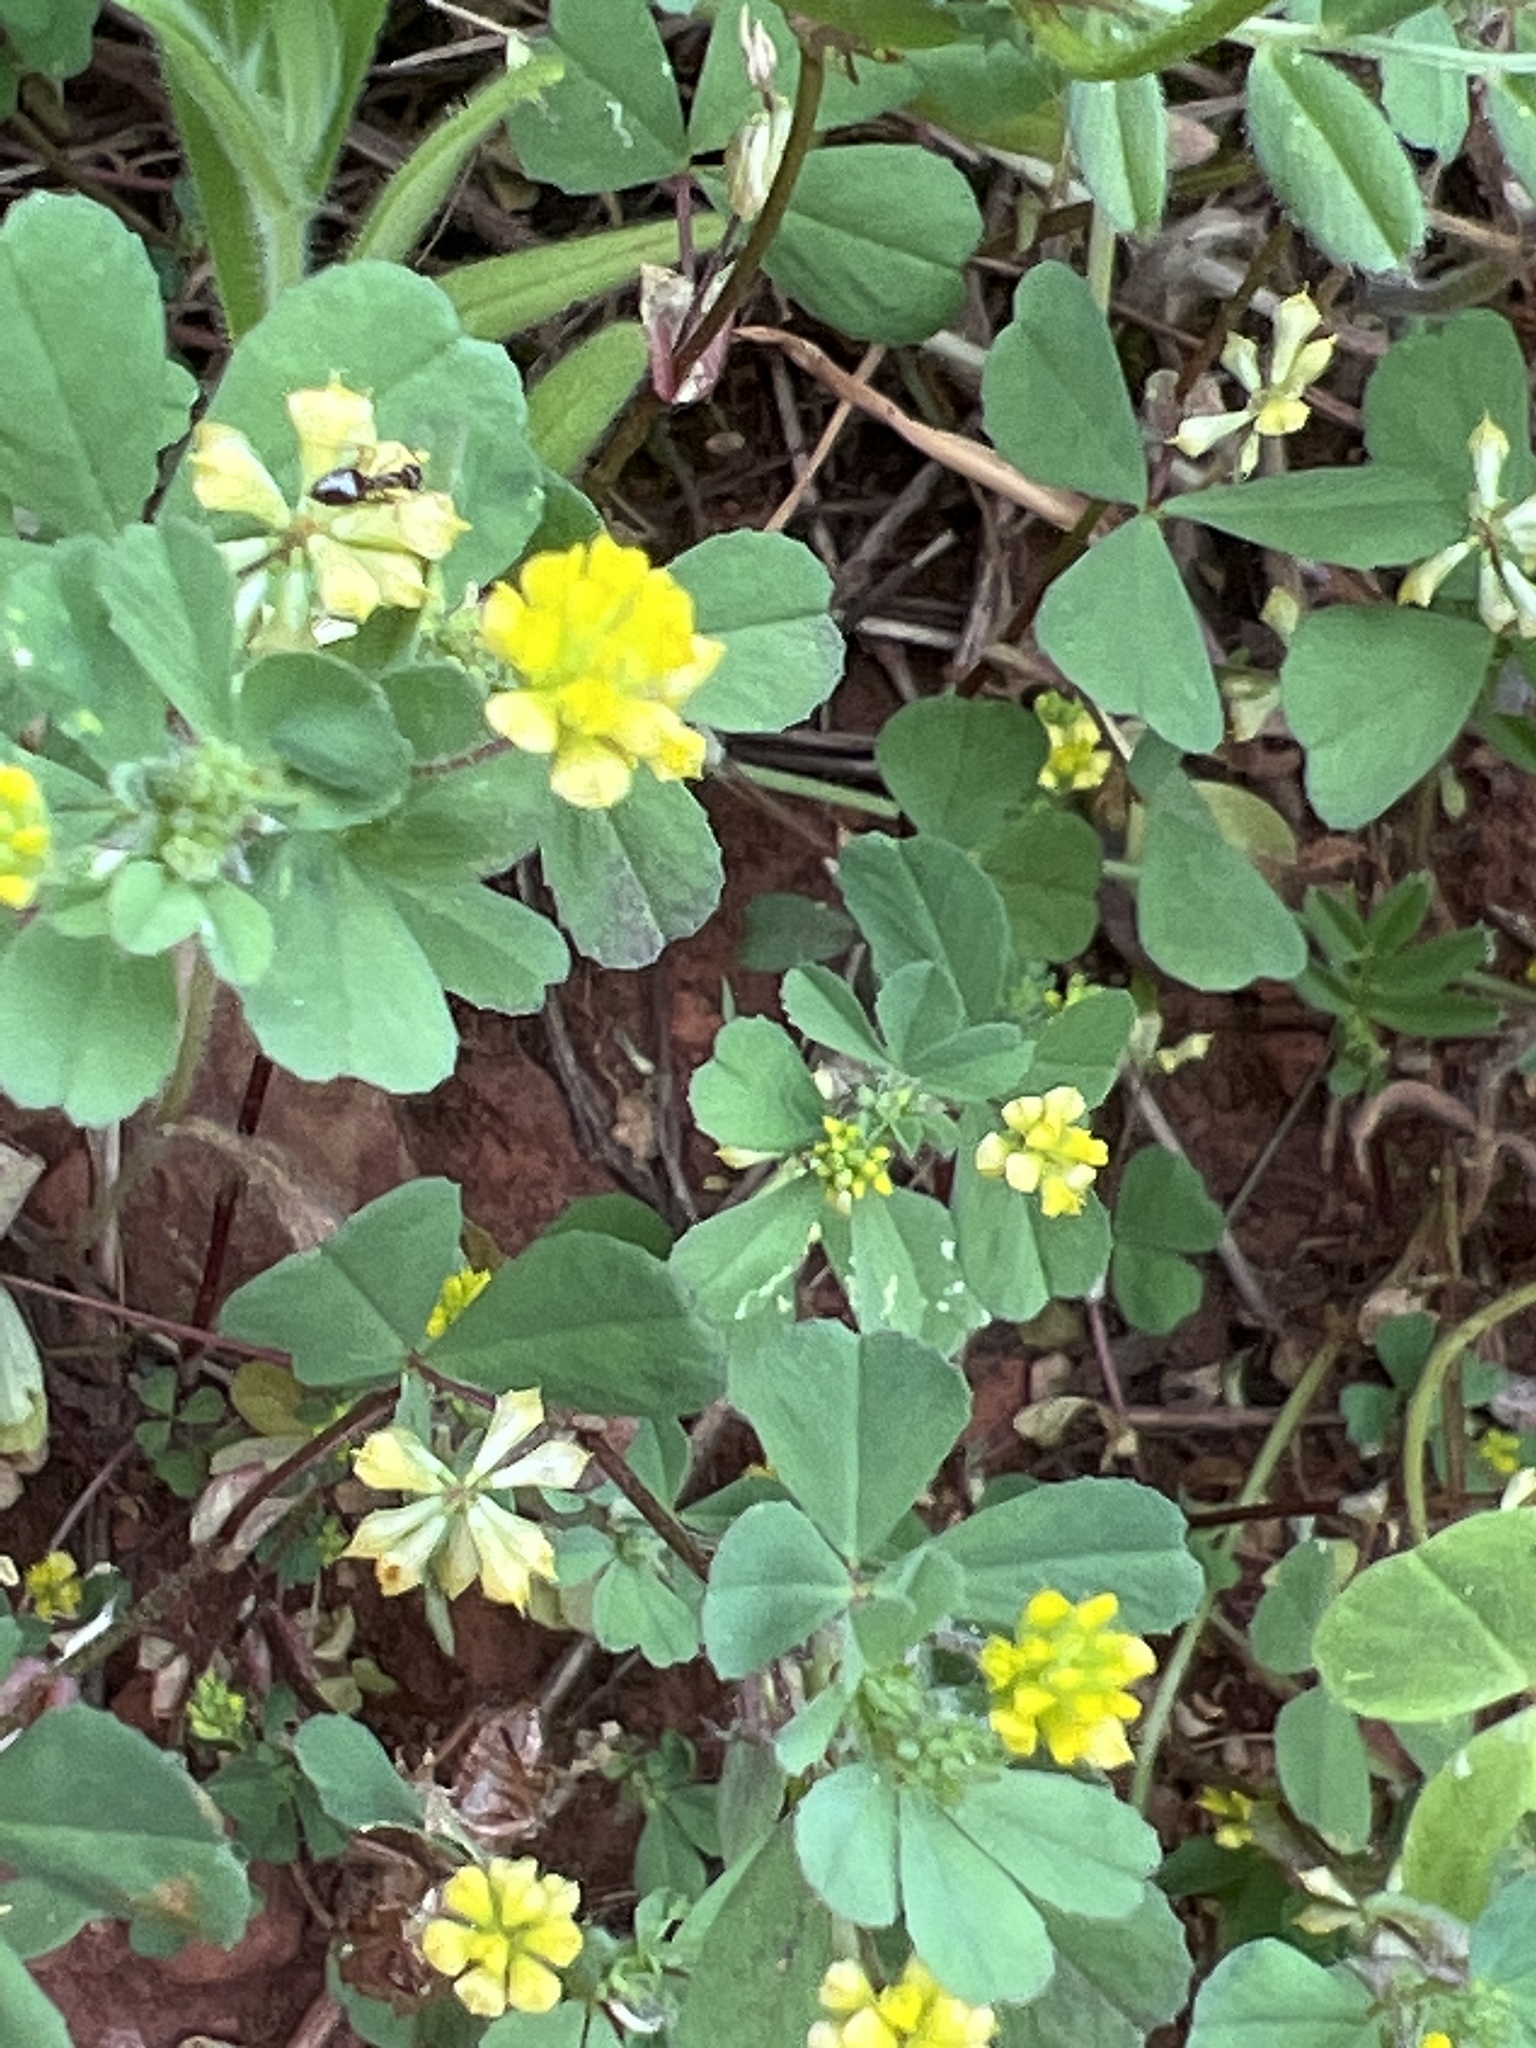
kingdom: Plantae
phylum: Tracheophyta
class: Magnoliopsida
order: Fabales
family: Fabaceae
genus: Trifolium
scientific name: Trifolium dubium
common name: Suckling clover
